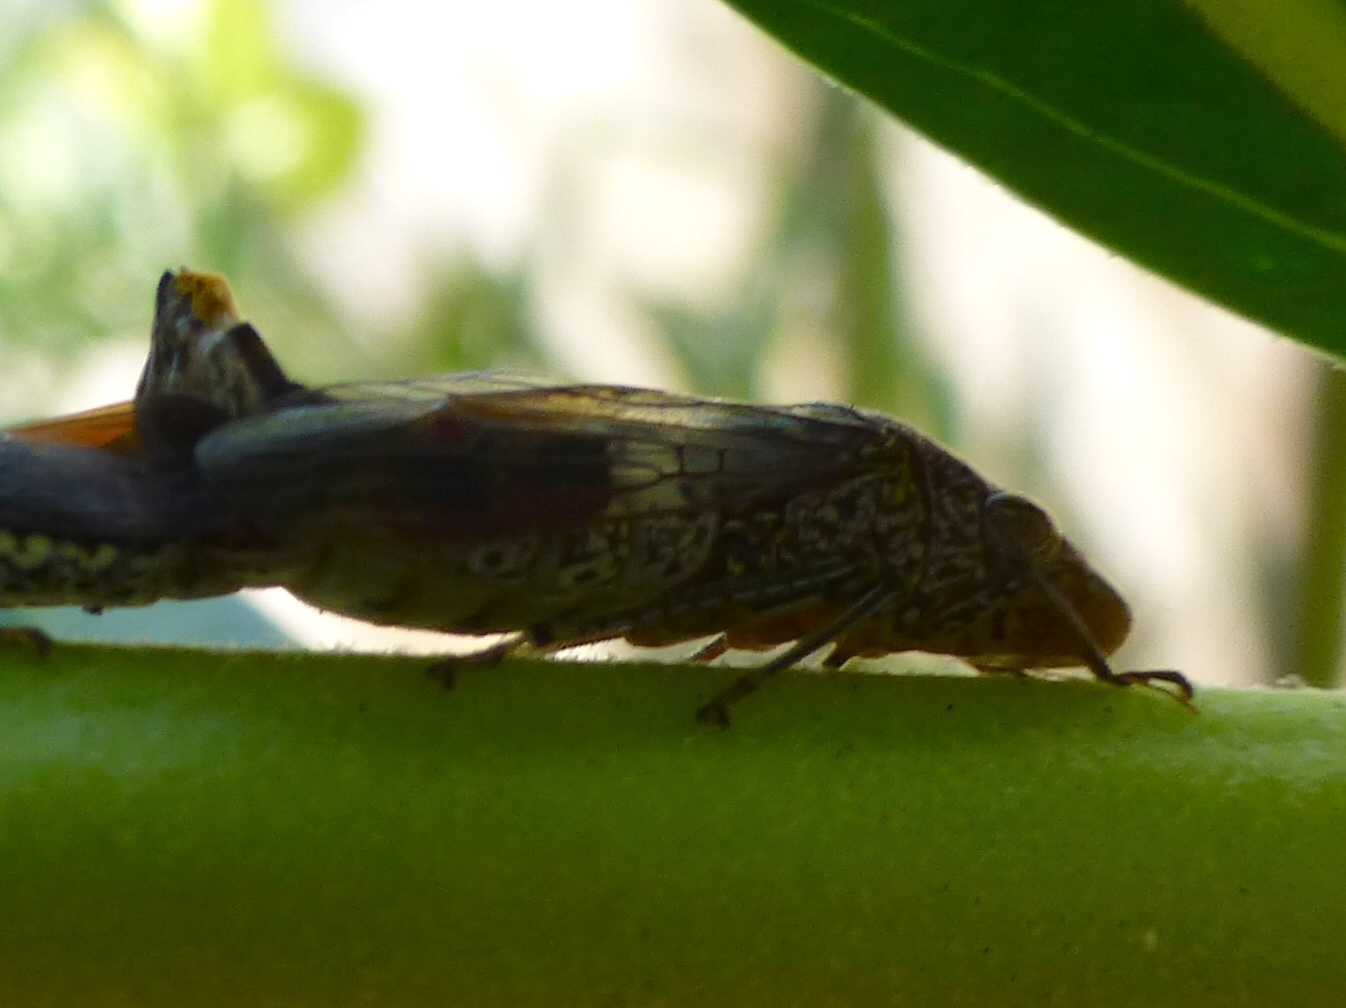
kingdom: Animalia
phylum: Arthropoda
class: Insecta
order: Hemiptera
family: Cicadellidae
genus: Homalodisca
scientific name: Homalodisca vitripennis
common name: Glassy-winged sharpshooter
